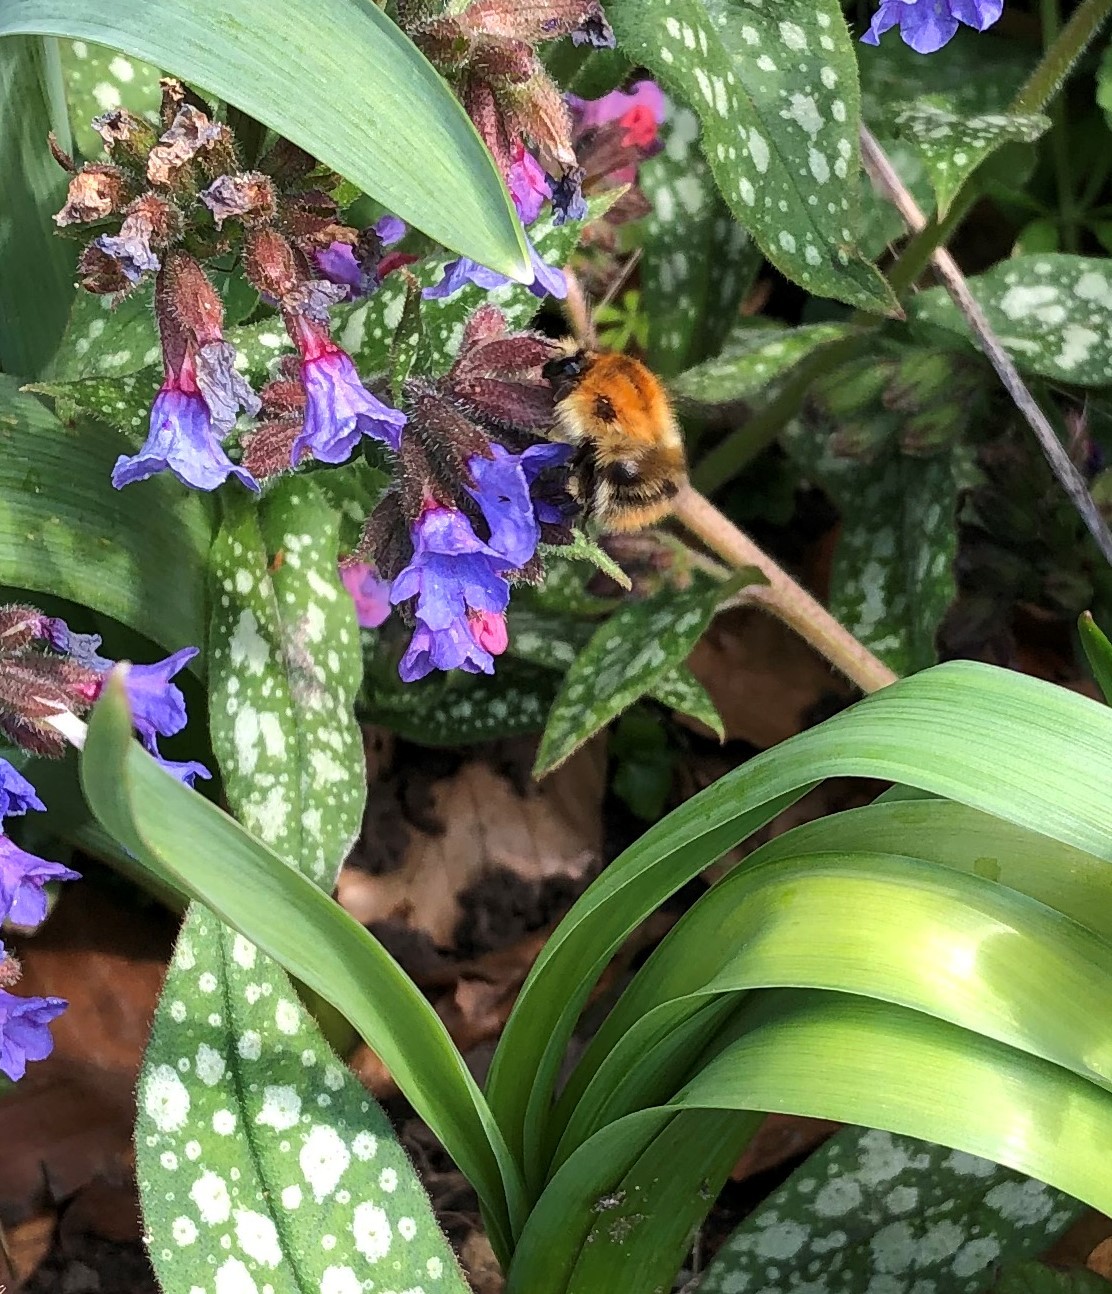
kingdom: Animalia
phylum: Arthropoda
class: Insecta
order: Hymenoptera
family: Apidae
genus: Bombus
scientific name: Bombus pascuorum
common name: Common carder bee
